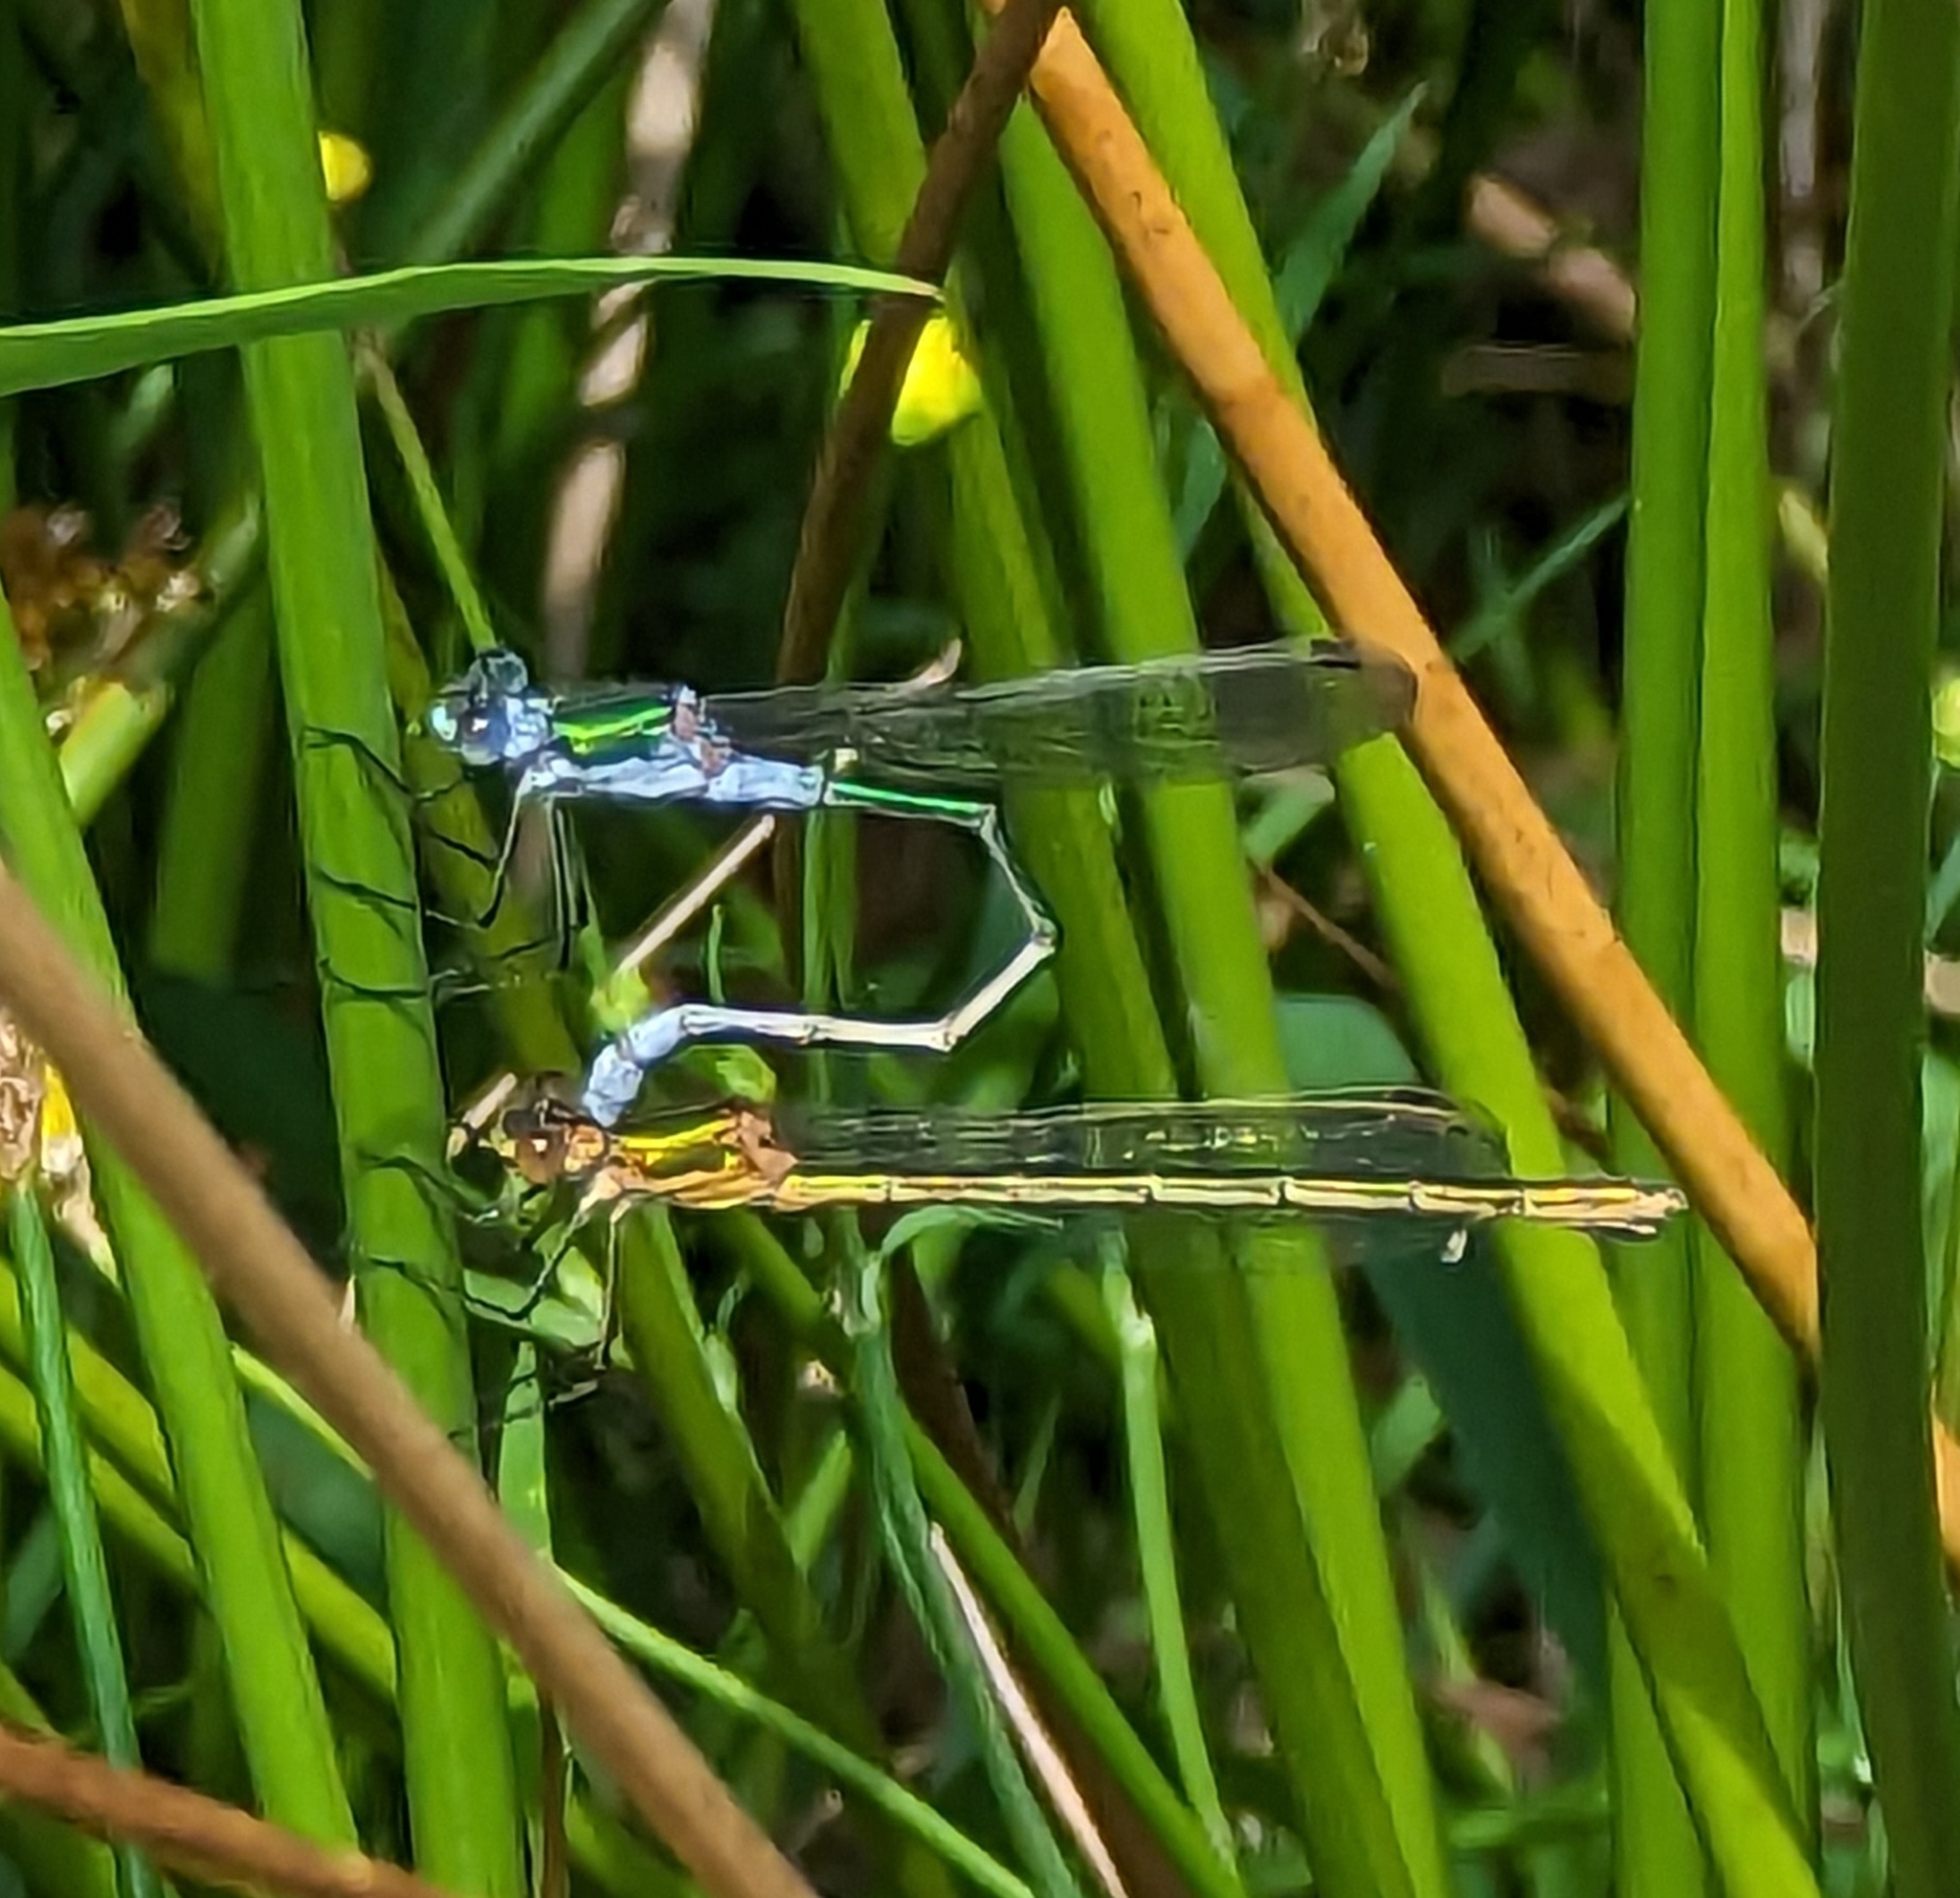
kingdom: Animalia
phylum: Arthropoda
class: Insecta
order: Odonata
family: Lestidae
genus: Lestes
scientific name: Lestes sponsa
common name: Common spreadwing
